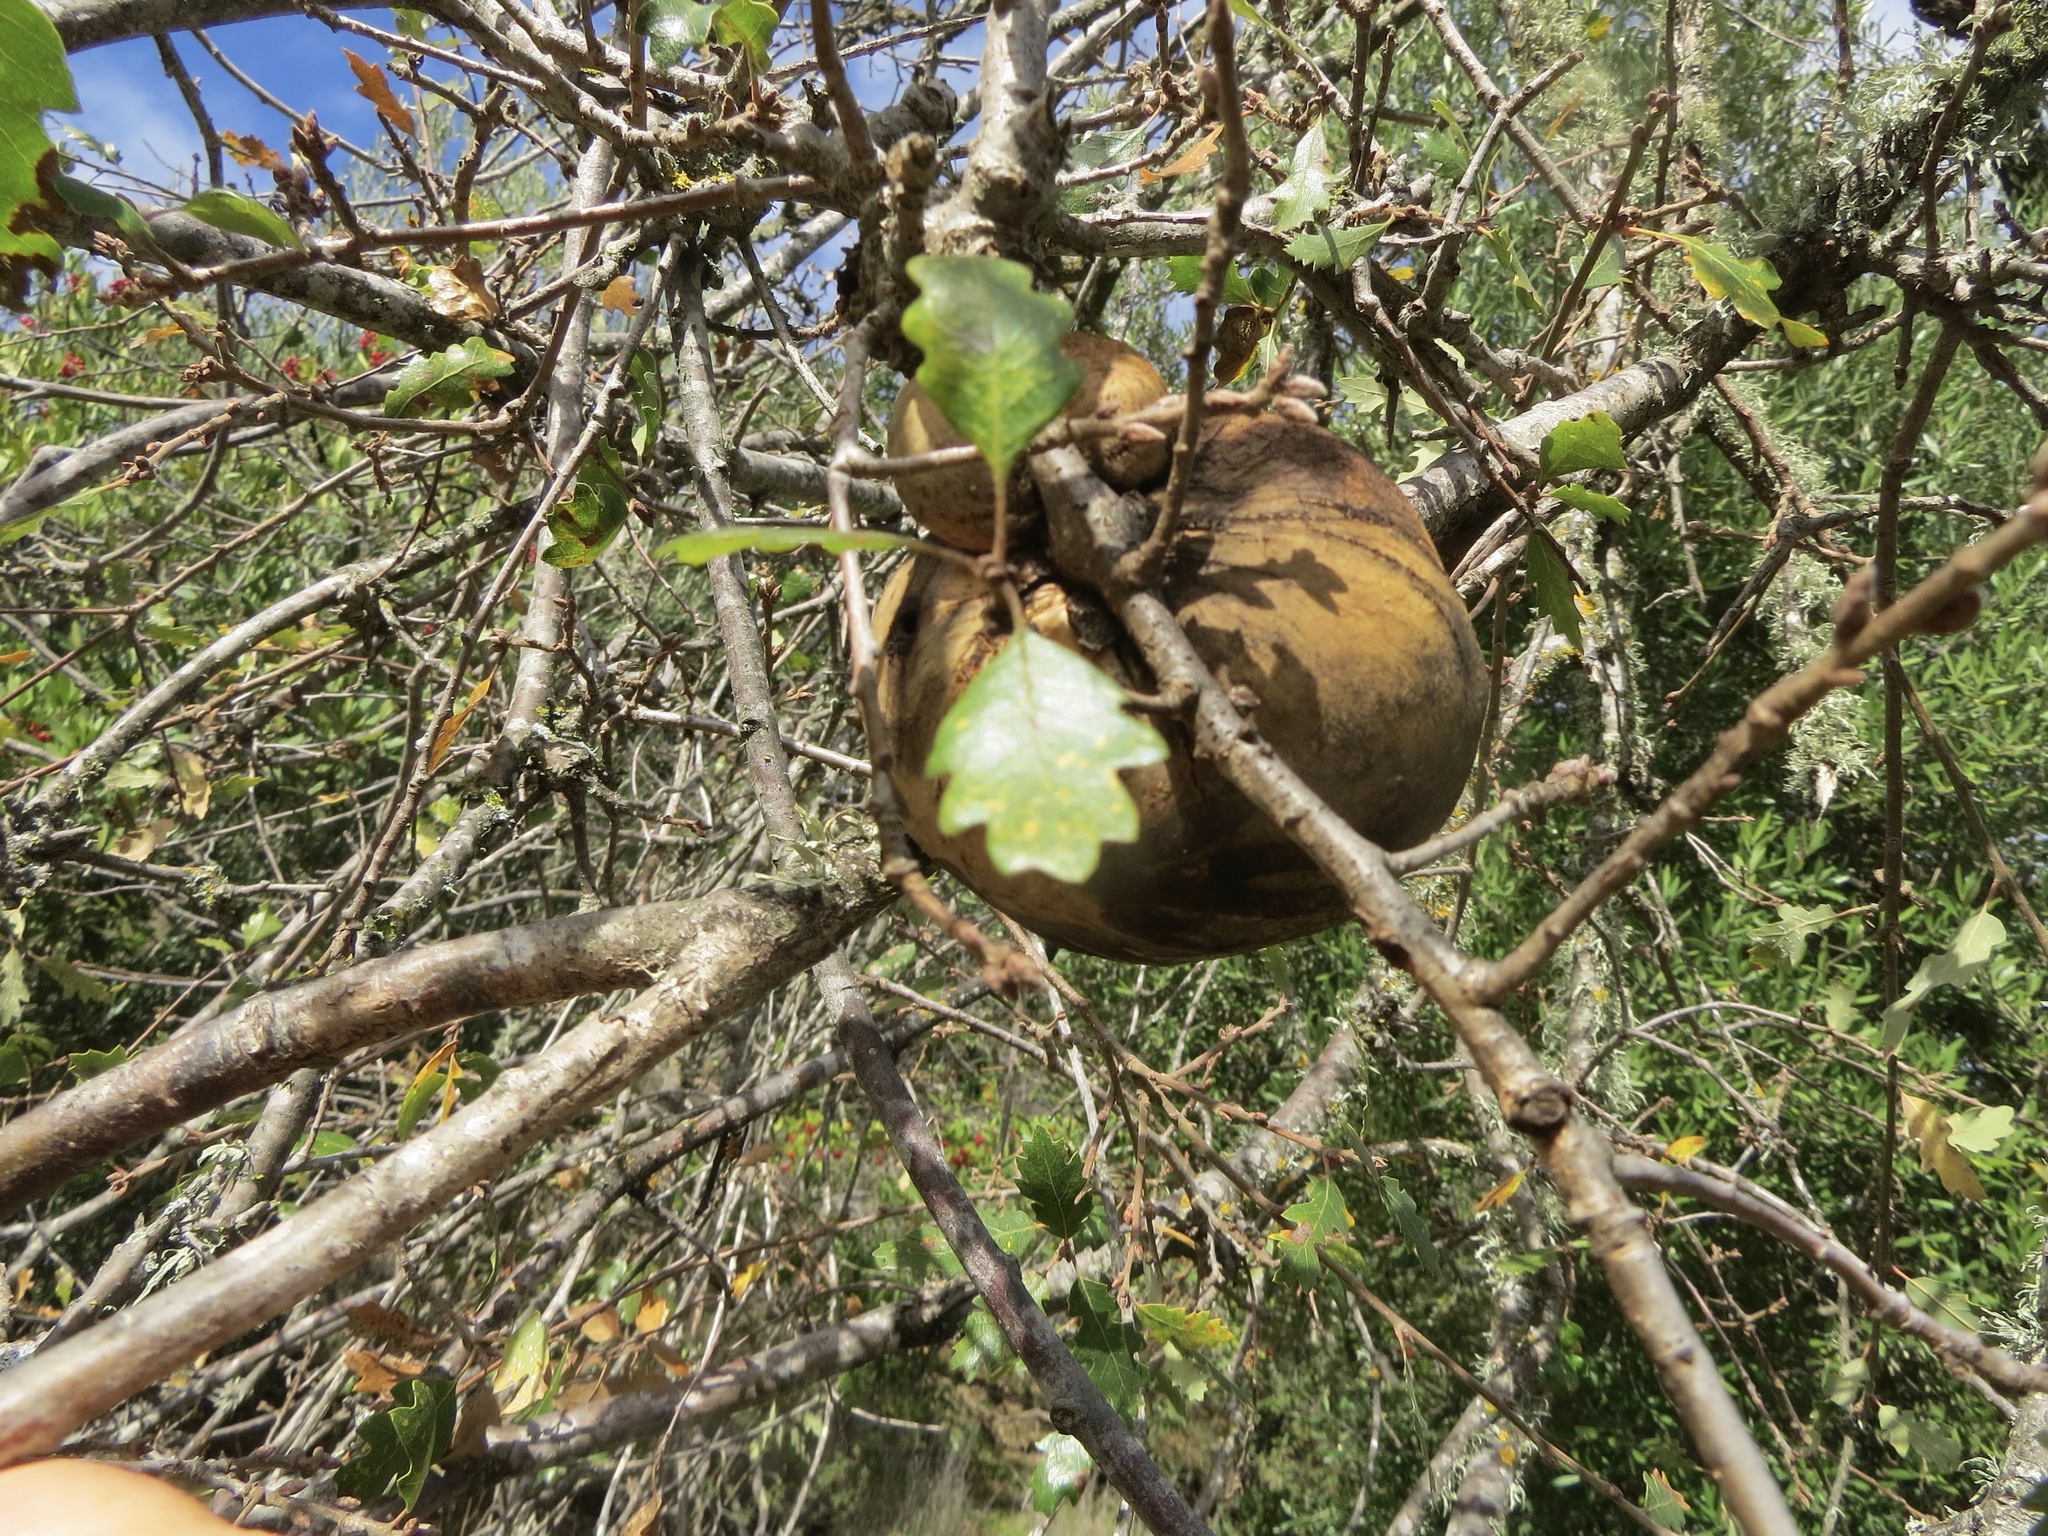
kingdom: Animalia
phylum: Arthropoda
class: Insecta
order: Hymenoptera
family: Cynipidae
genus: Andricus
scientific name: Andricus quercuscalifornicus
